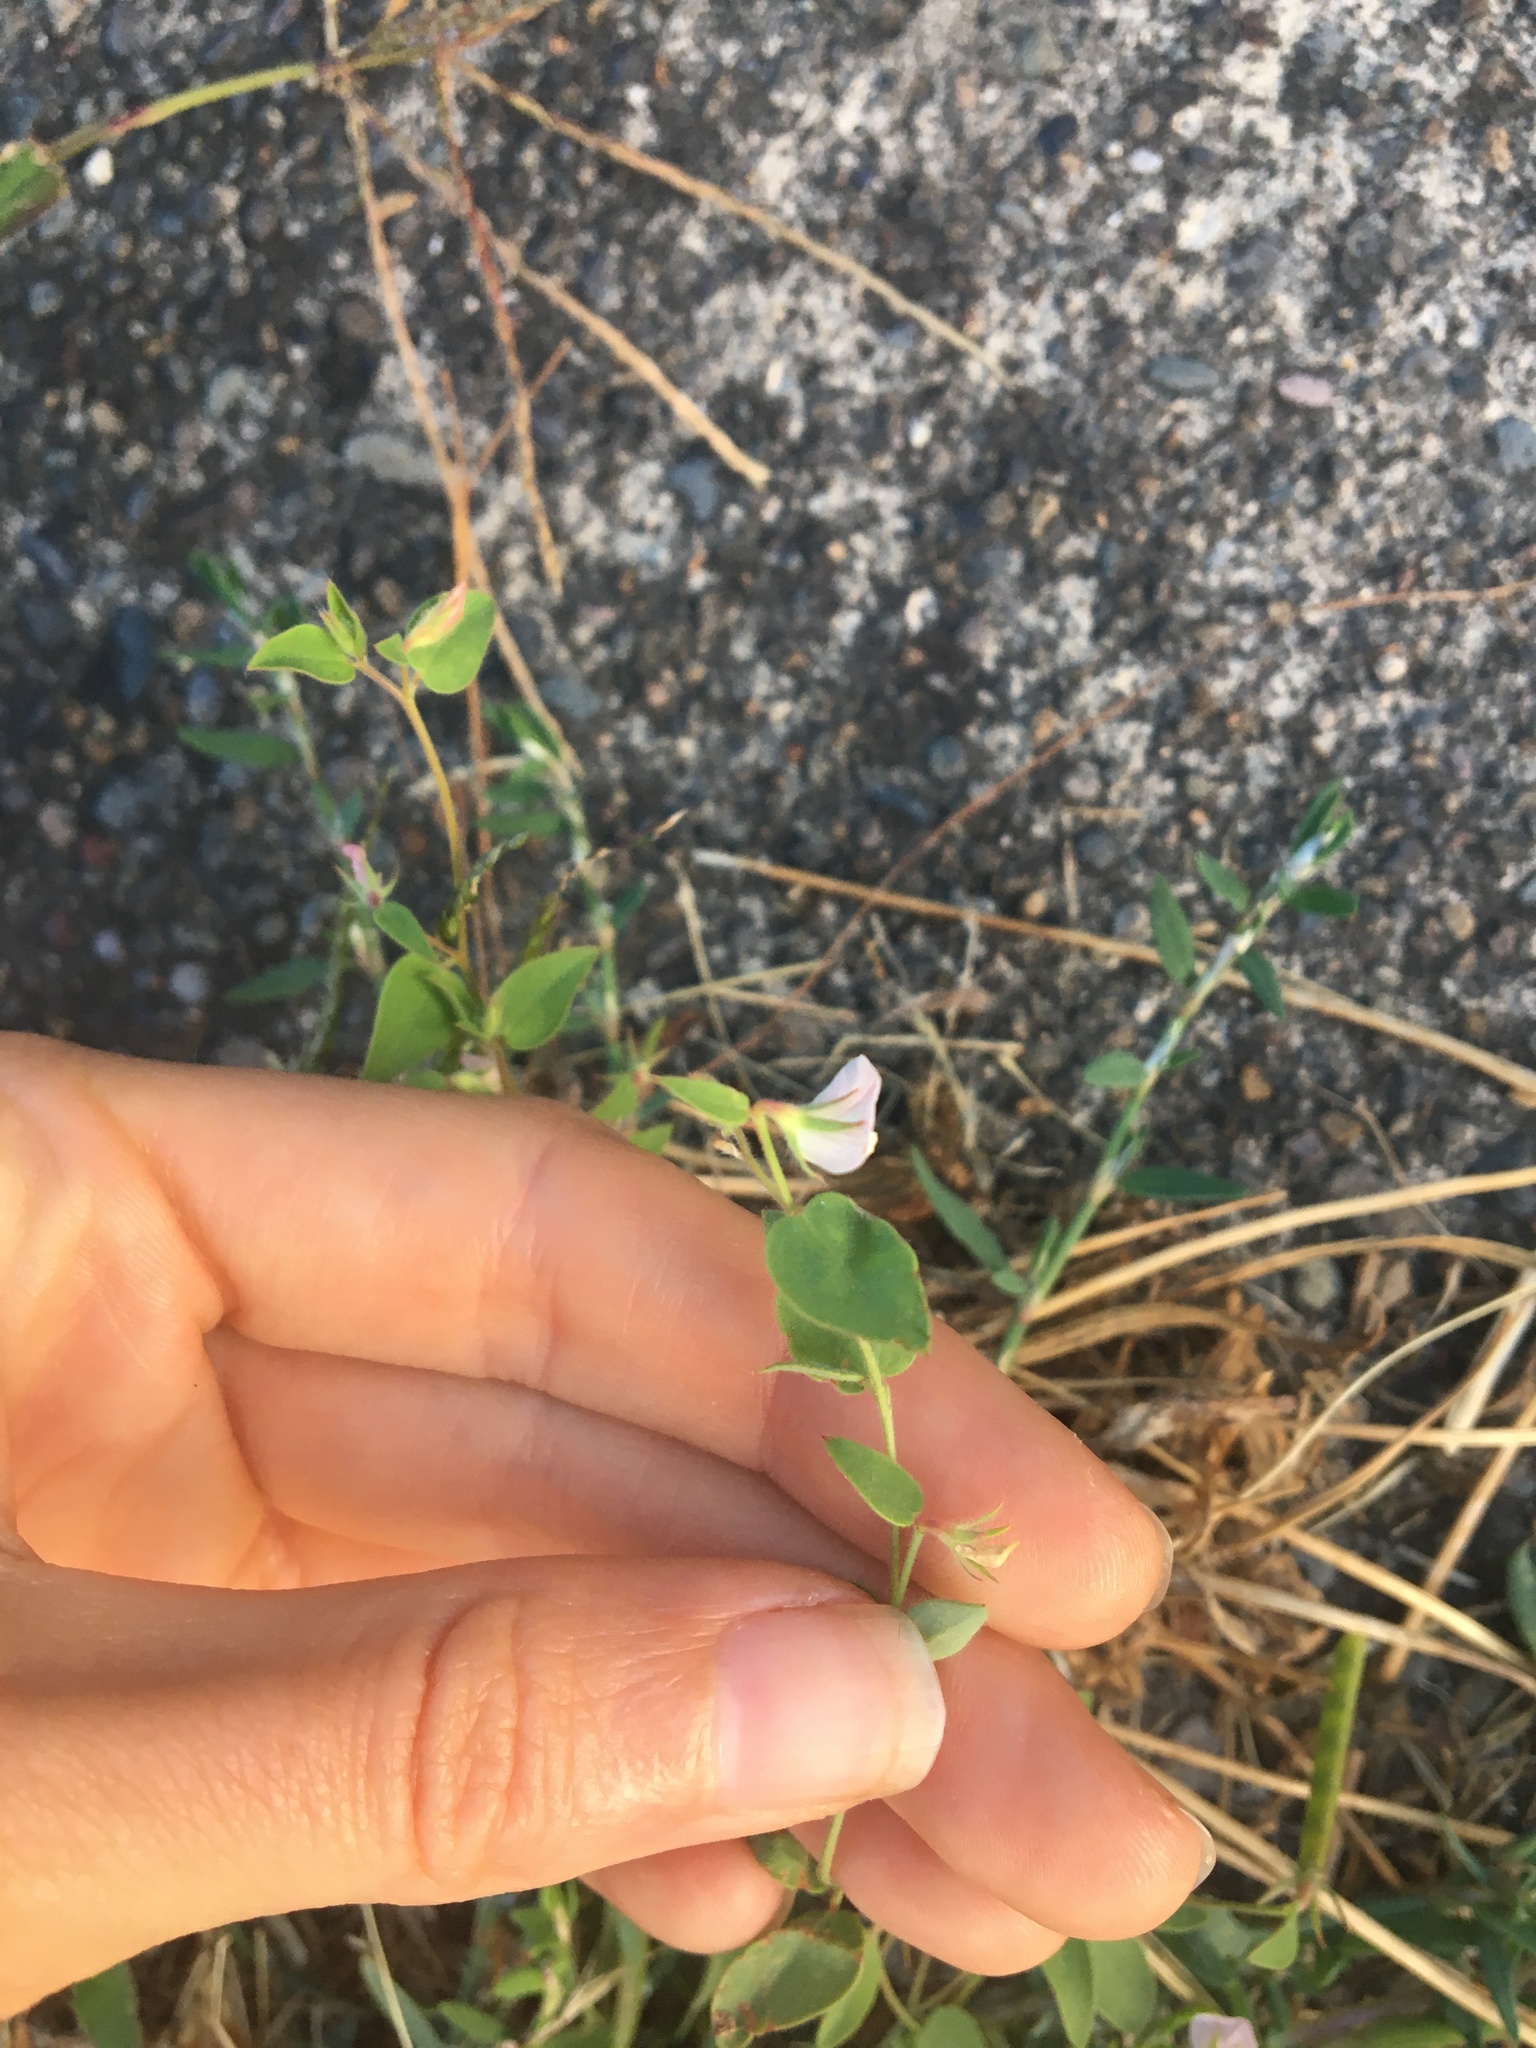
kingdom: Plantae
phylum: Tracheophyta
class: Magnoliopsida
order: Fabales
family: Fabaceae
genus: Acmispon
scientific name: Acmispon americanus
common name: American bird's-foot trefoil
